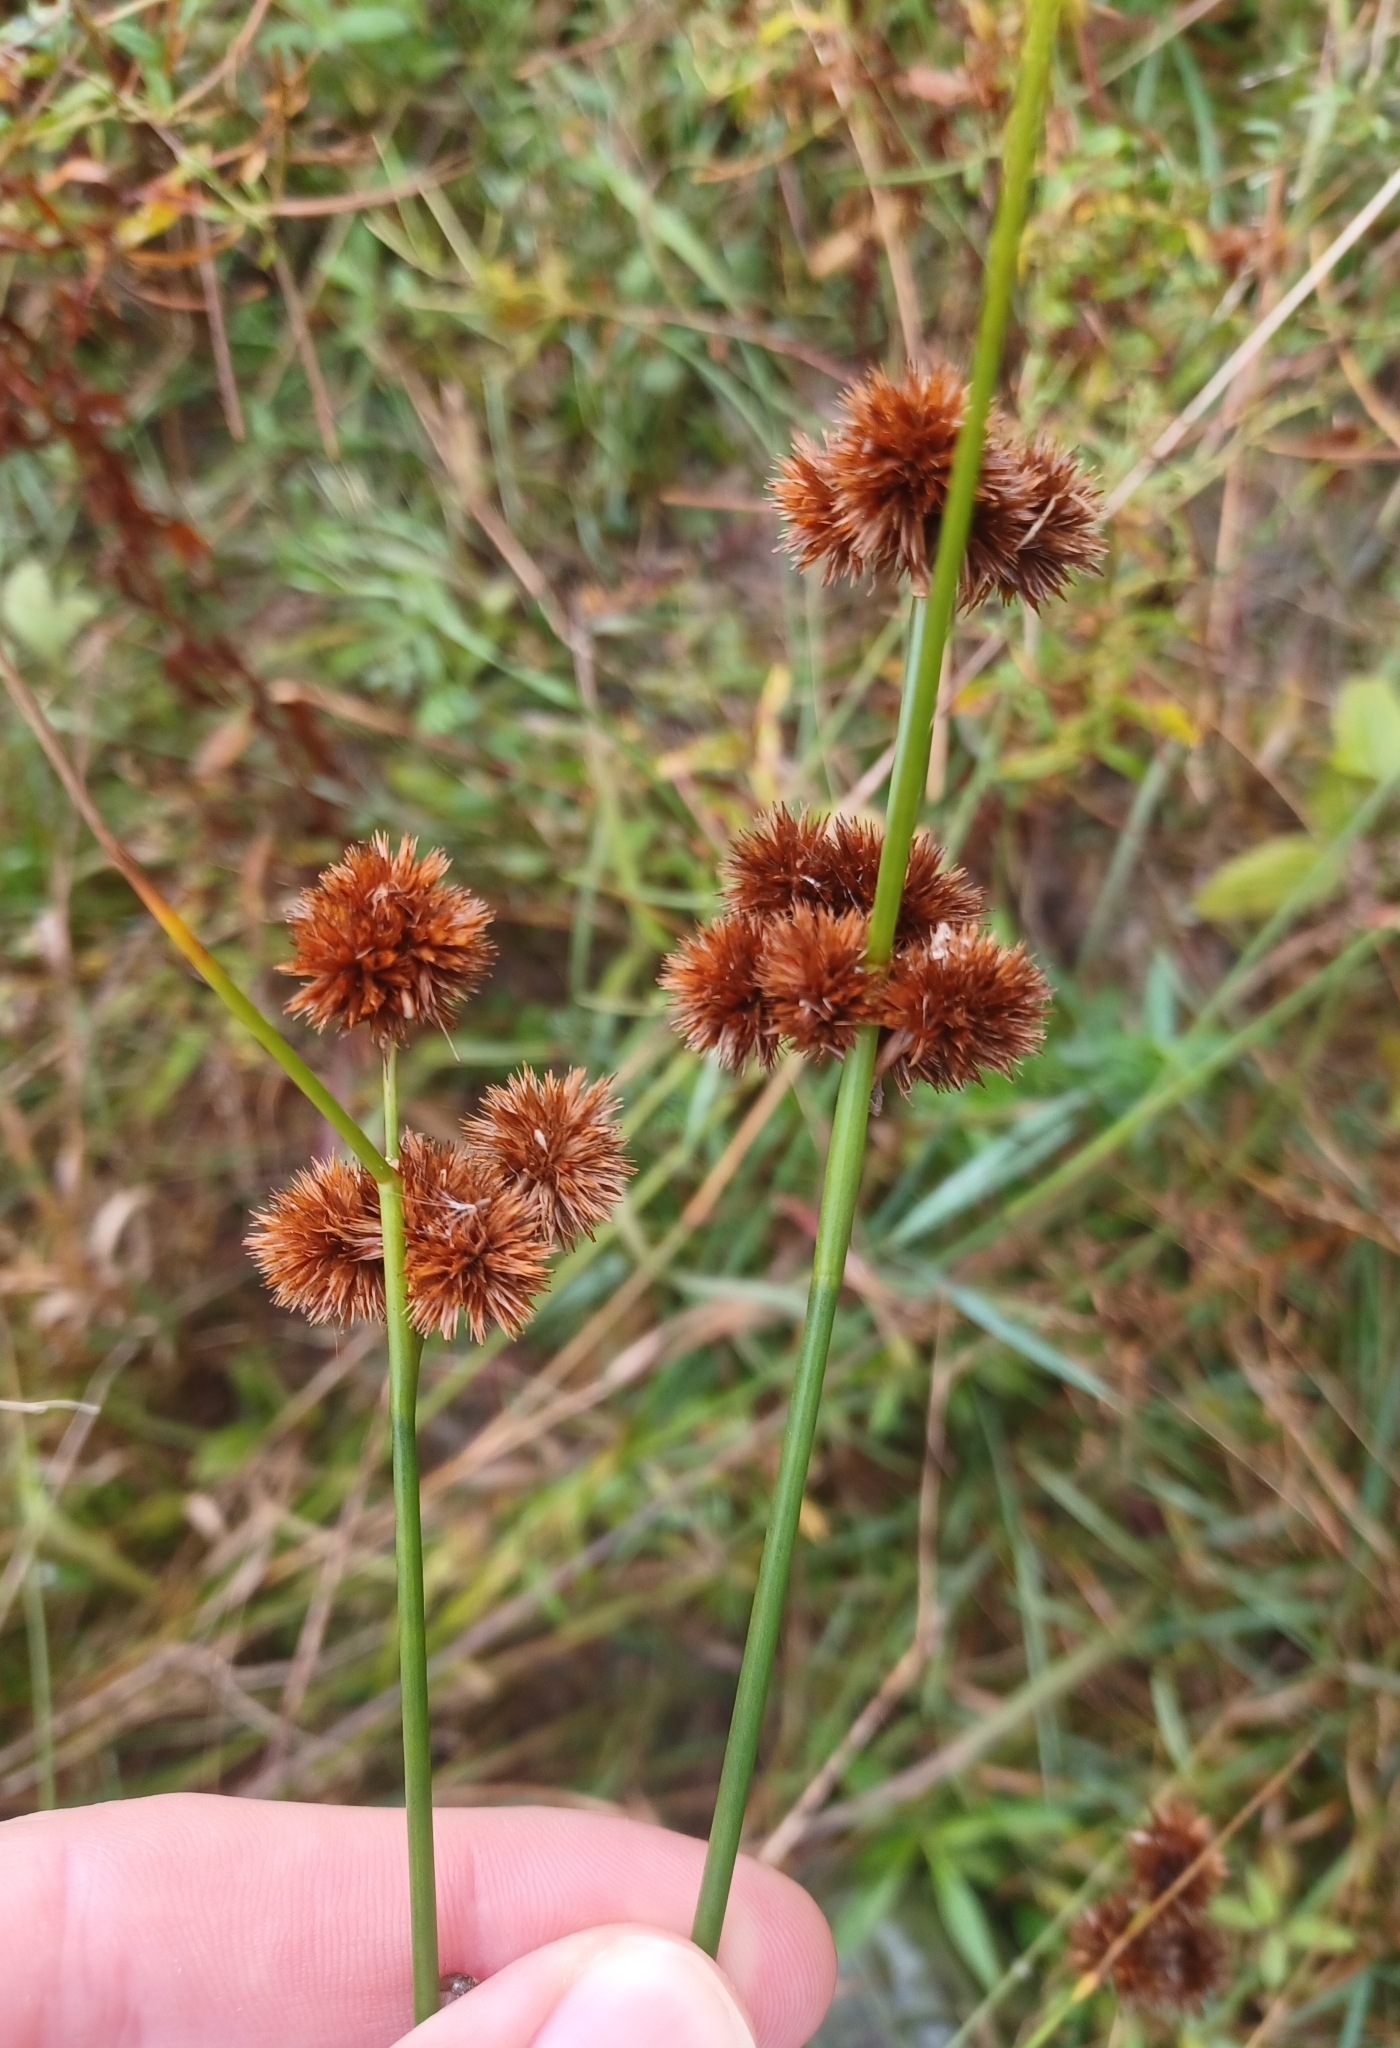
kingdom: Plantae
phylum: Tracheophyta
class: Liliopsida
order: Poales
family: Juncaceae
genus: Juncus
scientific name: Juncus torreyi
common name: Torrey's rush
